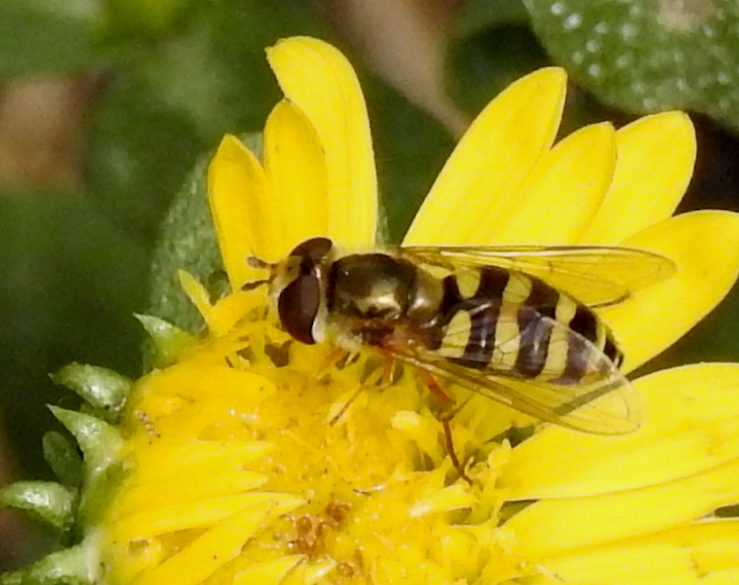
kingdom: Animalia
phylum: Arthropoda
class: Insecta
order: Diptera
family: Syrphidae
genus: Eupeodes
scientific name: Eupeodes fumipennis
